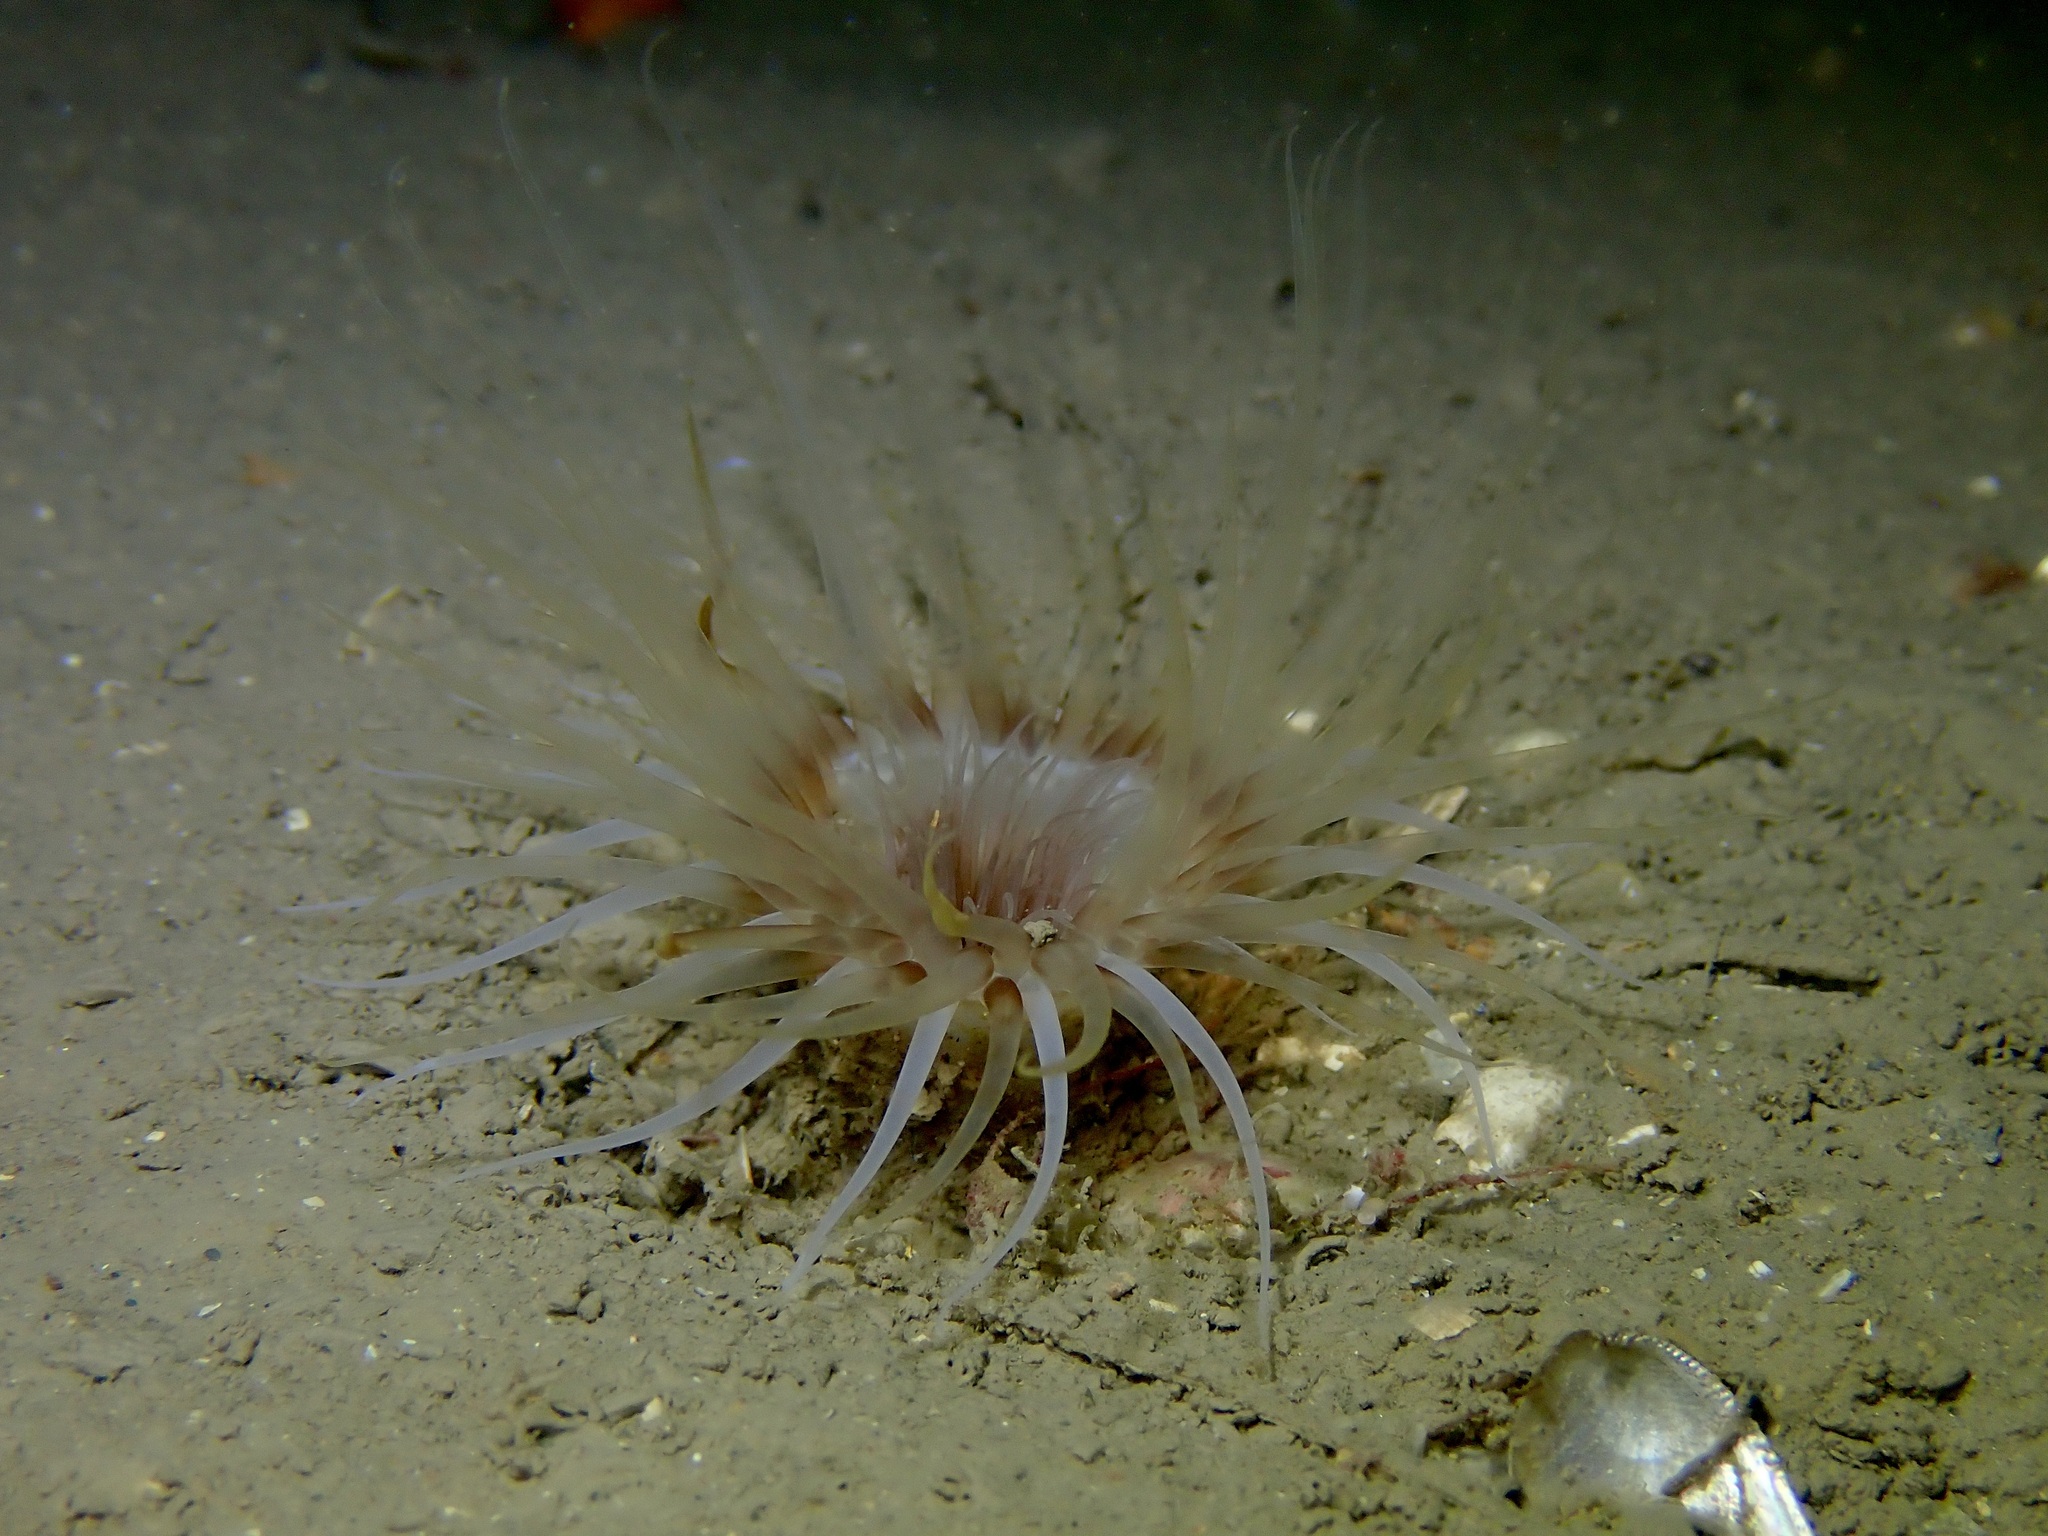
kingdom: Animalia
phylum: Cnidaria
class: Anthozoa
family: Cerianthidae
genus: Synarachnactis
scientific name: Synarachnactis
